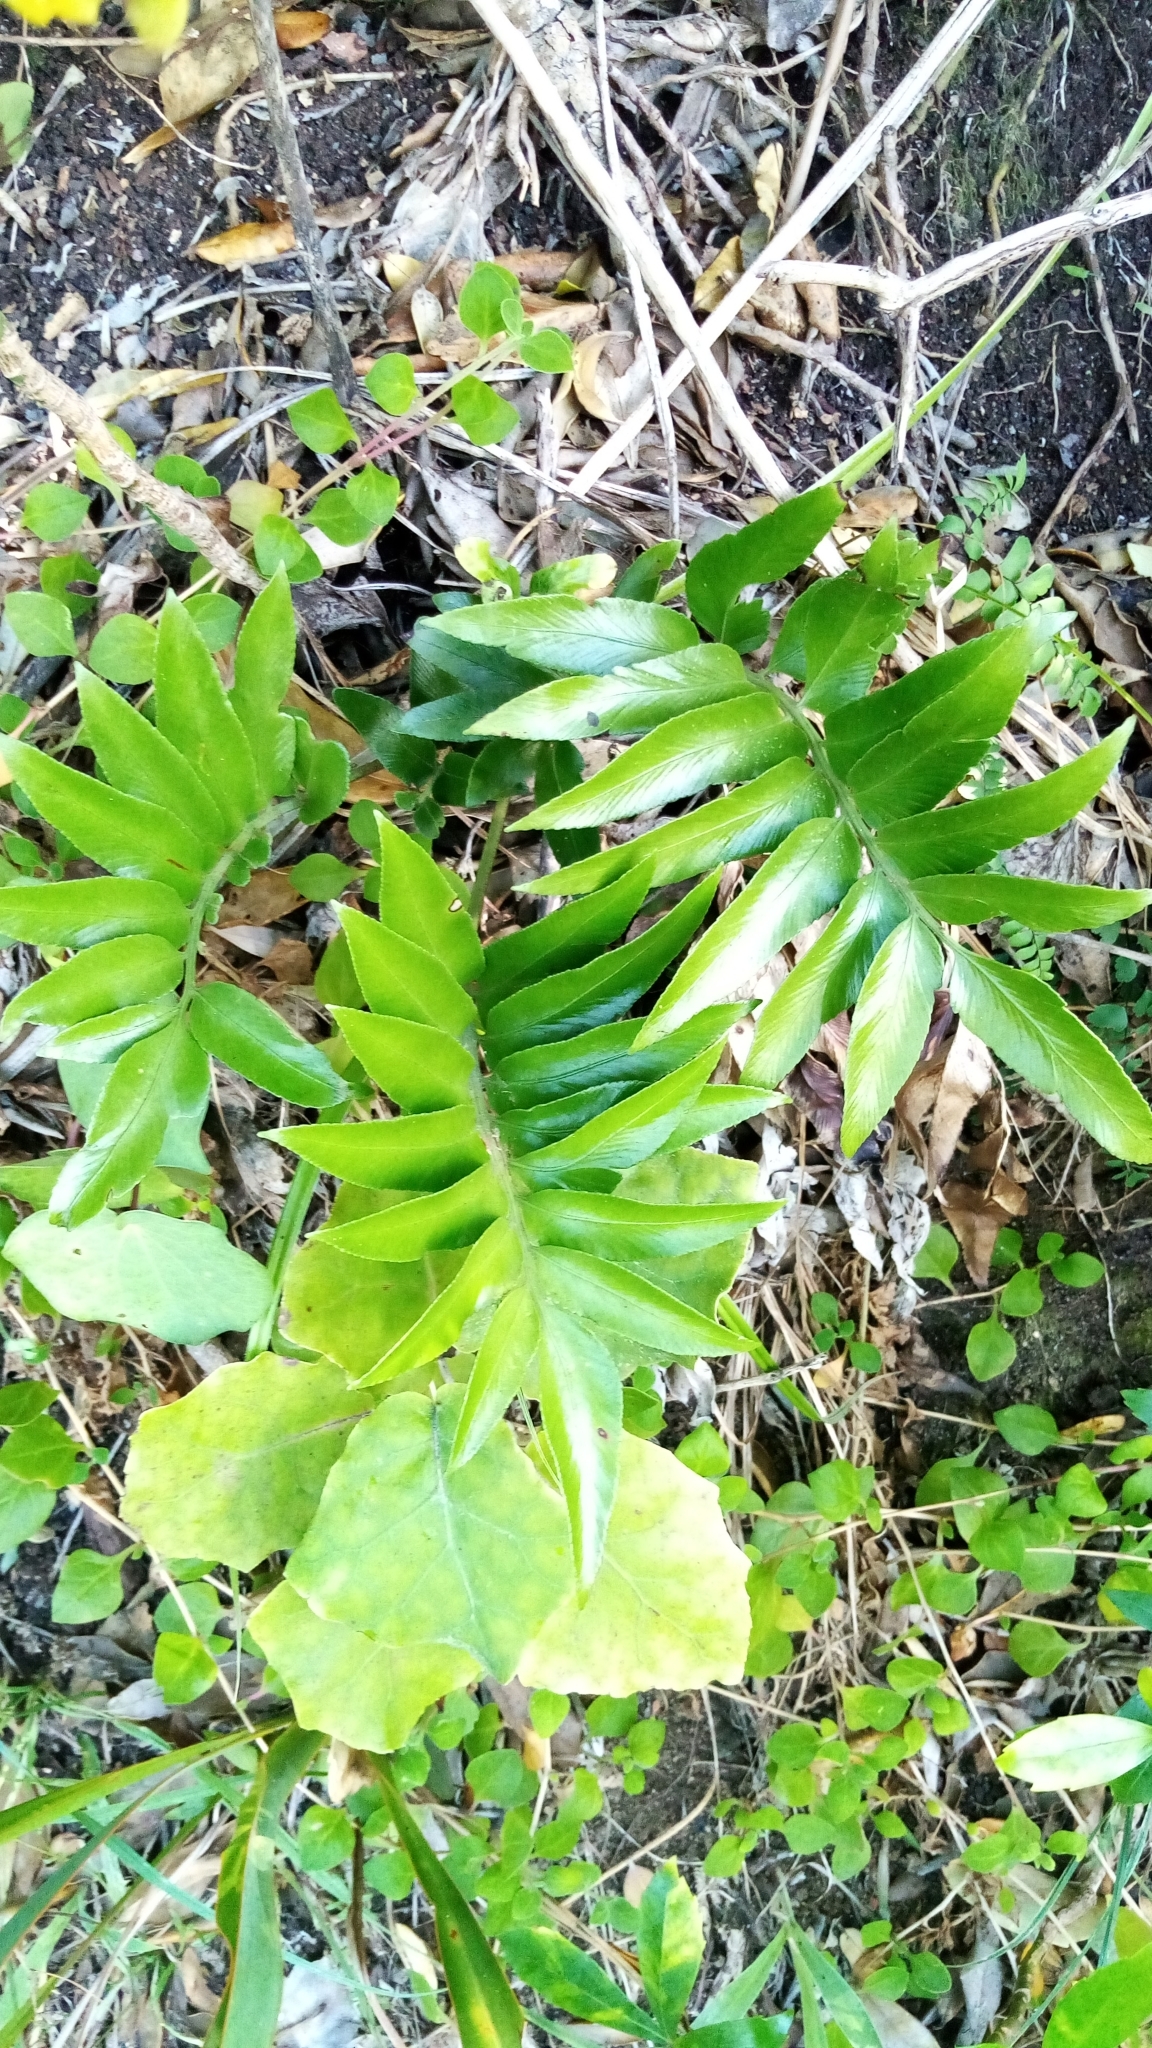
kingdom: Plantae
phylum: Tracheophyta
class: Polypodiopsida
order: Polypodiales
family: Aspleniaceae
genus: Asplenium
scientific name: Asplenium oblongifolium
